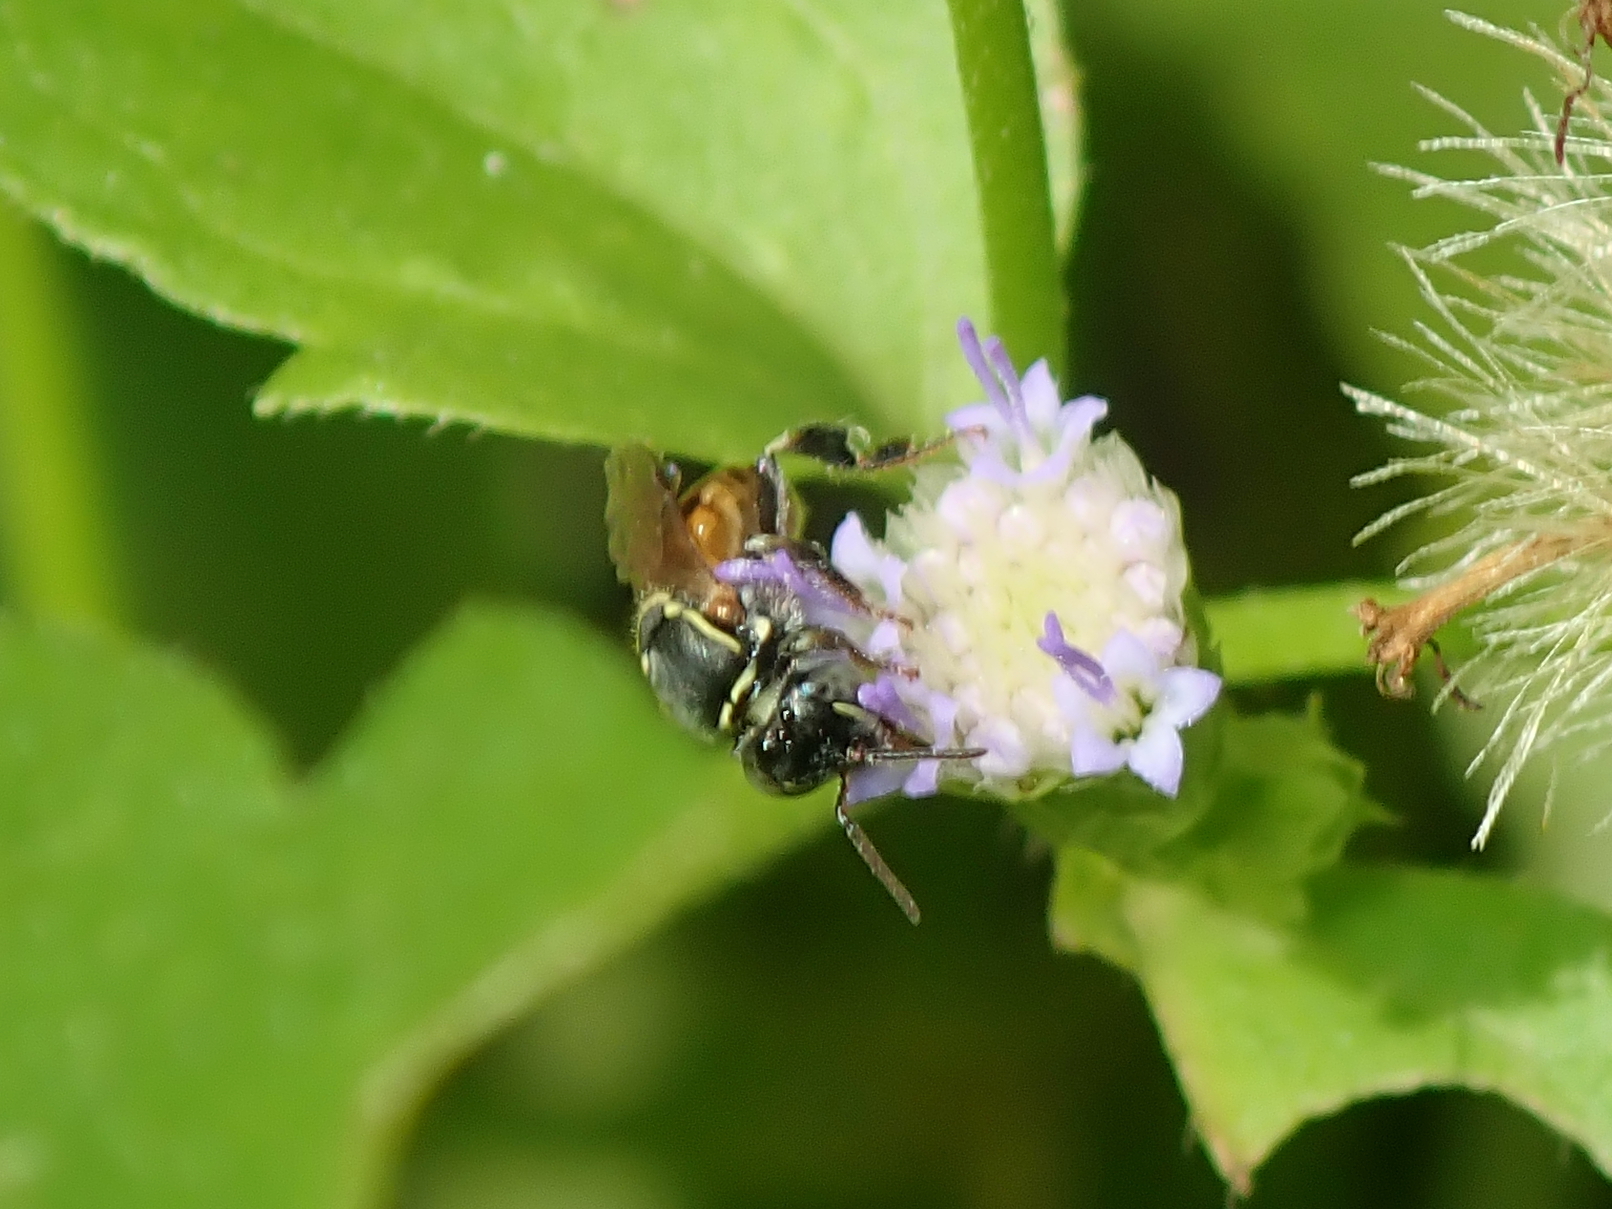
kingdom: Animalia
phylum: Arthropoda
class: Insecta
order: Hymenoptera
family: Apidae
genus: Paratrigona
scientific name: Paratrigona lineata
